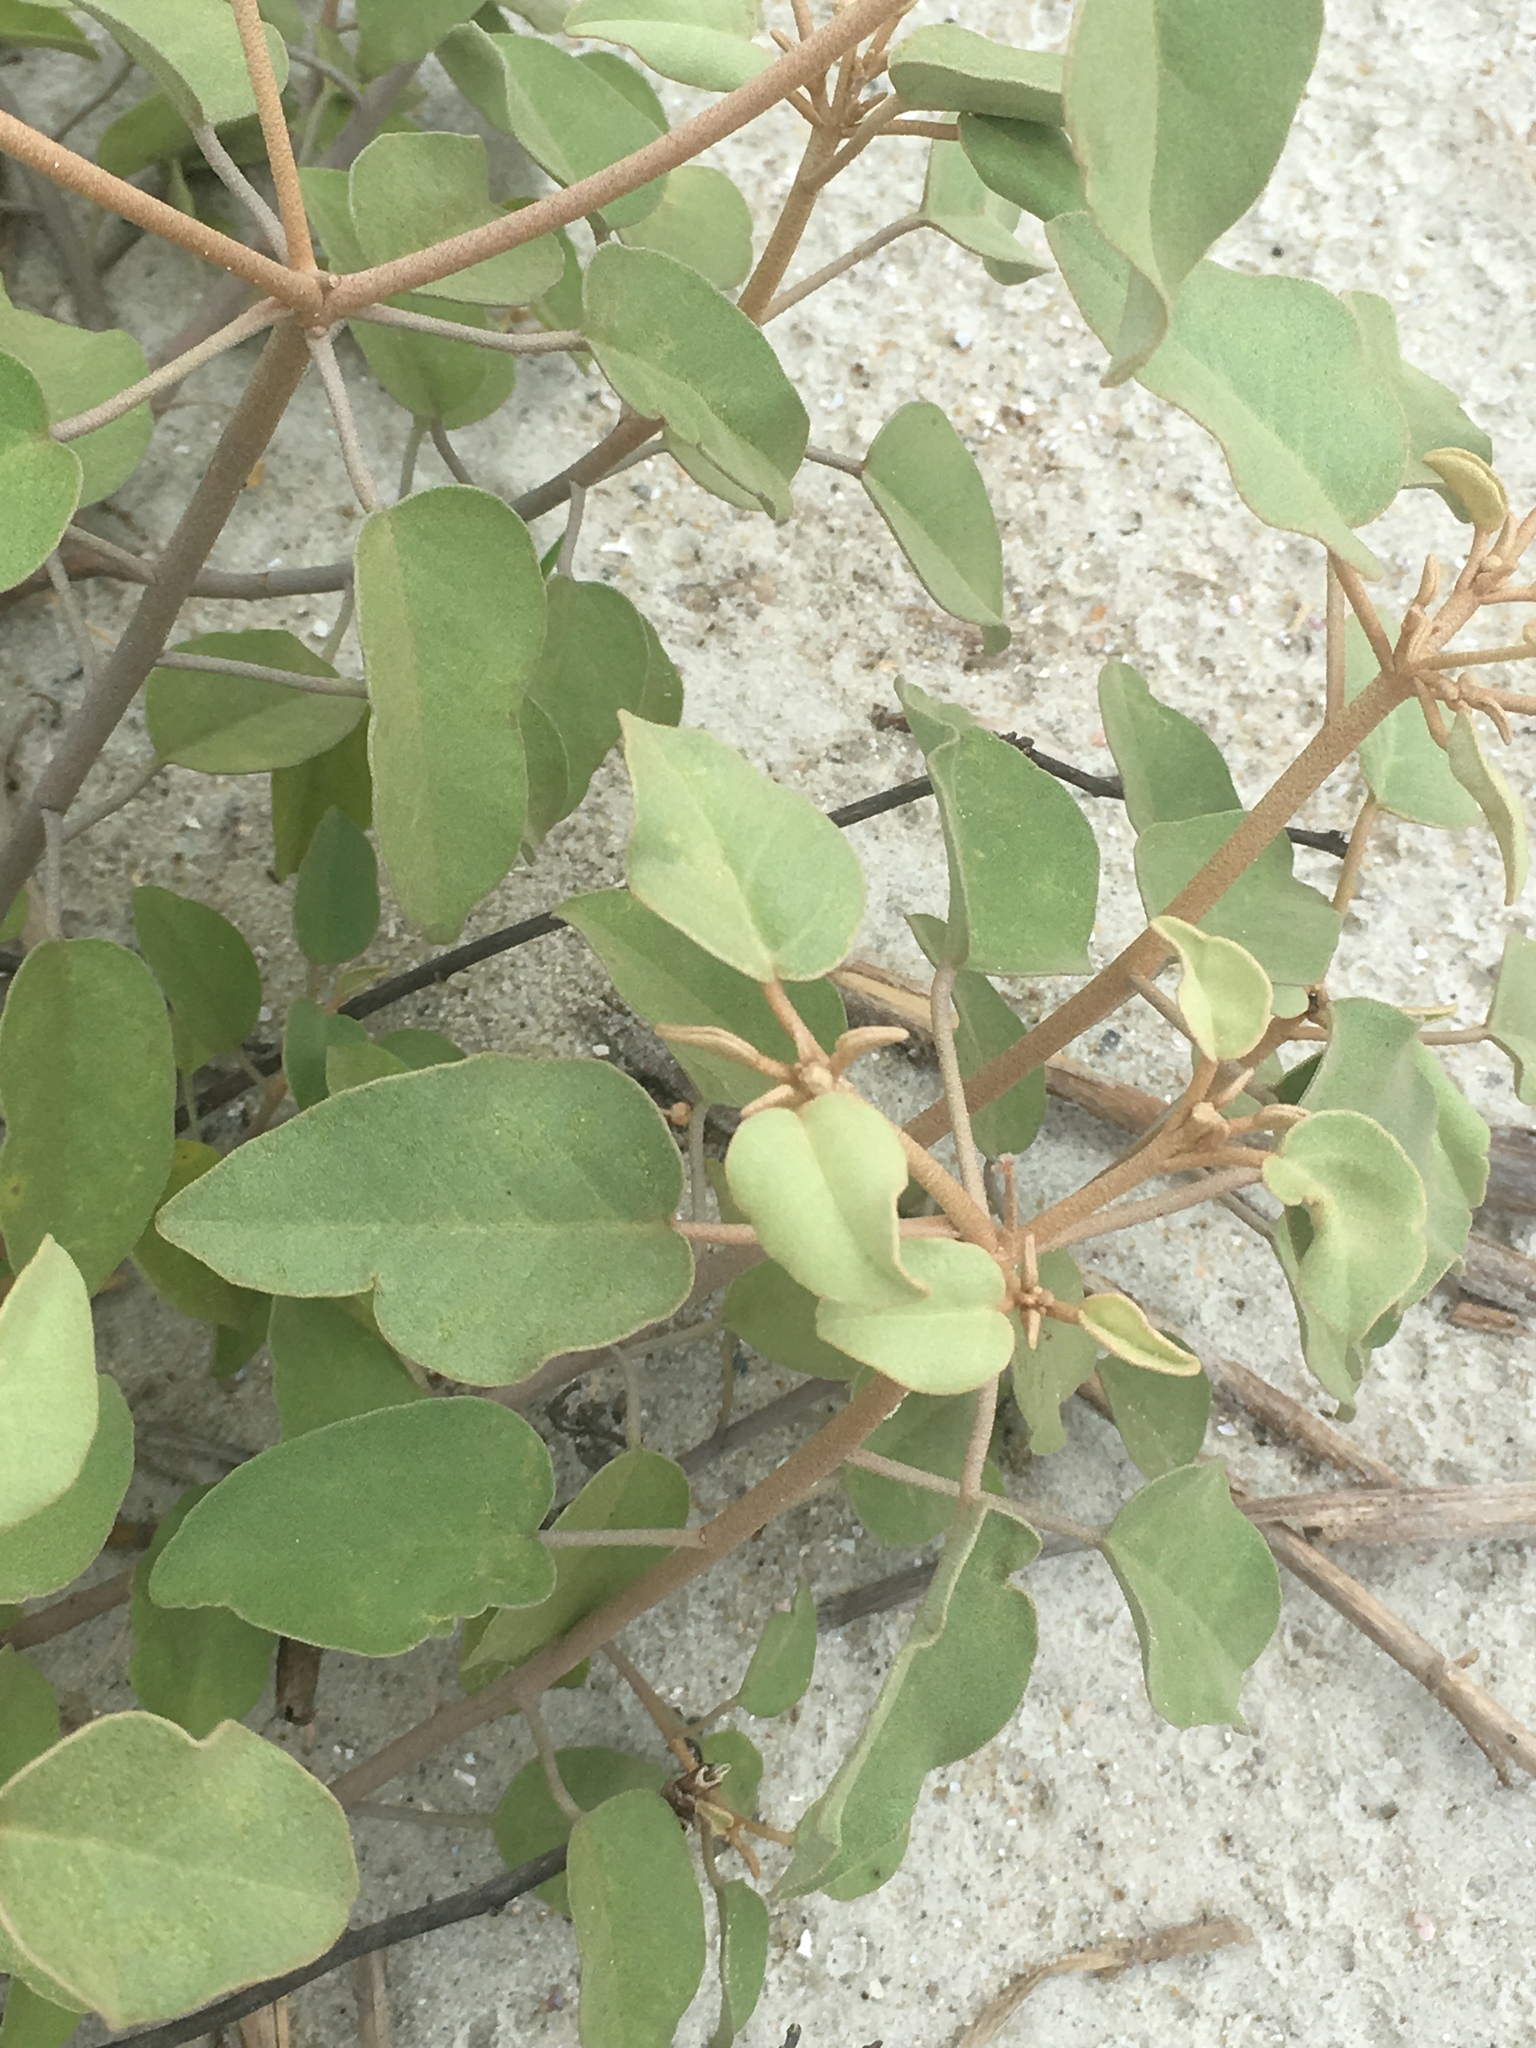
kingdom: Plantae
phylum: Tracheophyta
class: Magnoliopsida
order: Malpighiales
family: Euphorbiaceae
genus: Croton
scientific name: Croton punctatus
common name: Beach-tea
